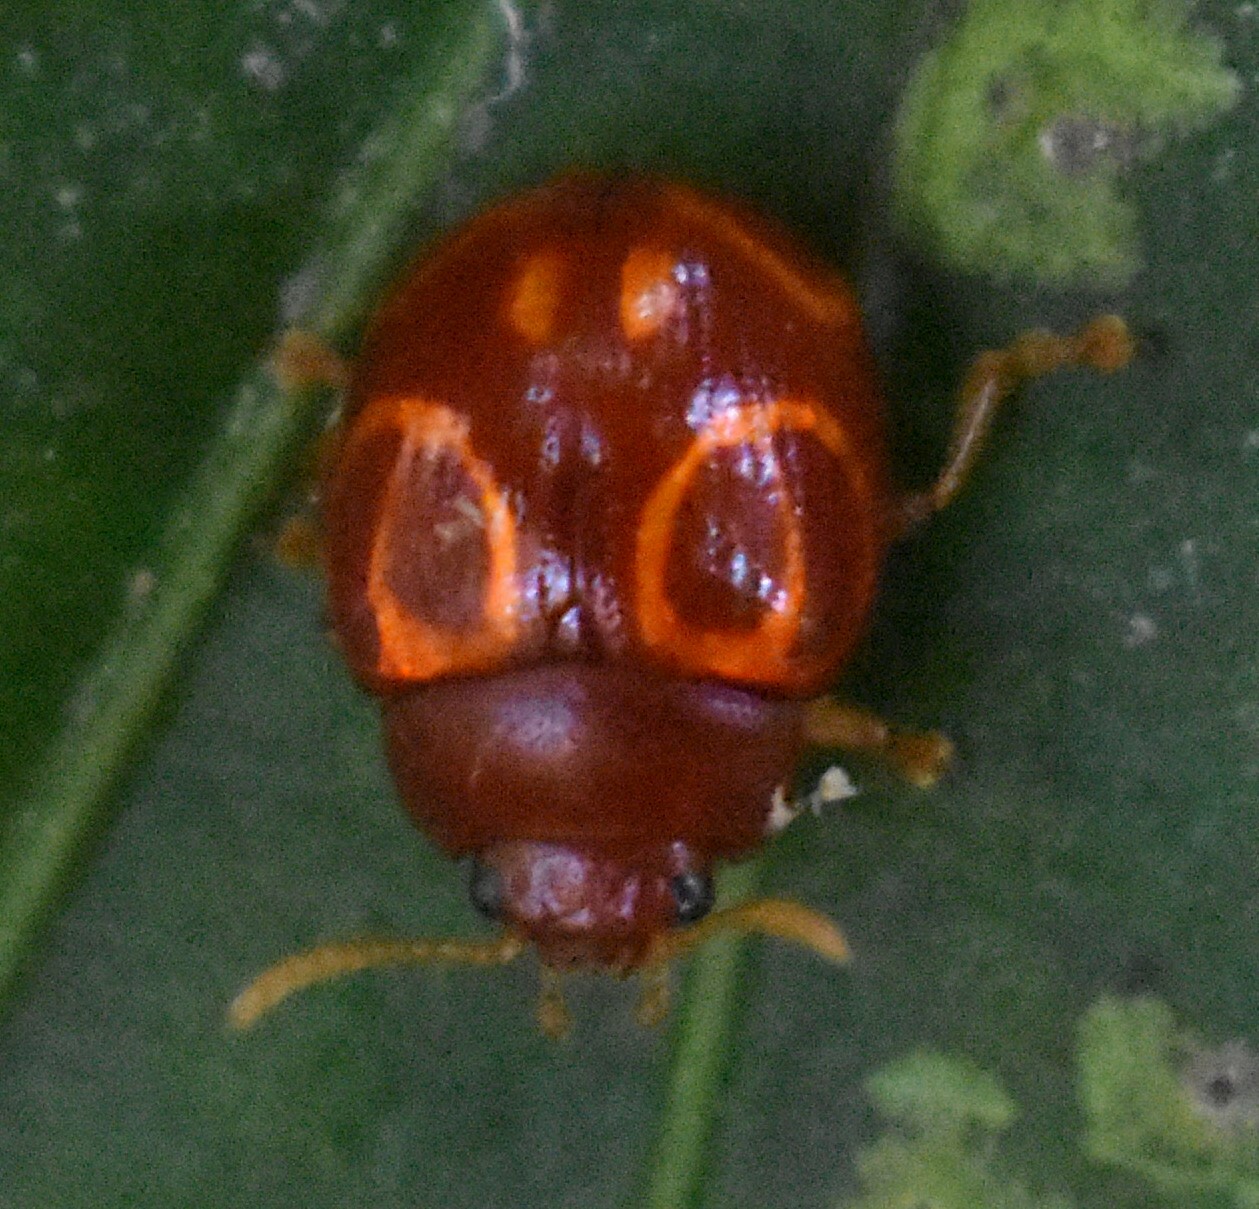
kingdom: Animalia
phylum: Arthropoda
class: Insecta
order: Coleoptera
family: Chrysomelidae
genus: Stilodes
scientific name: Stilodes
